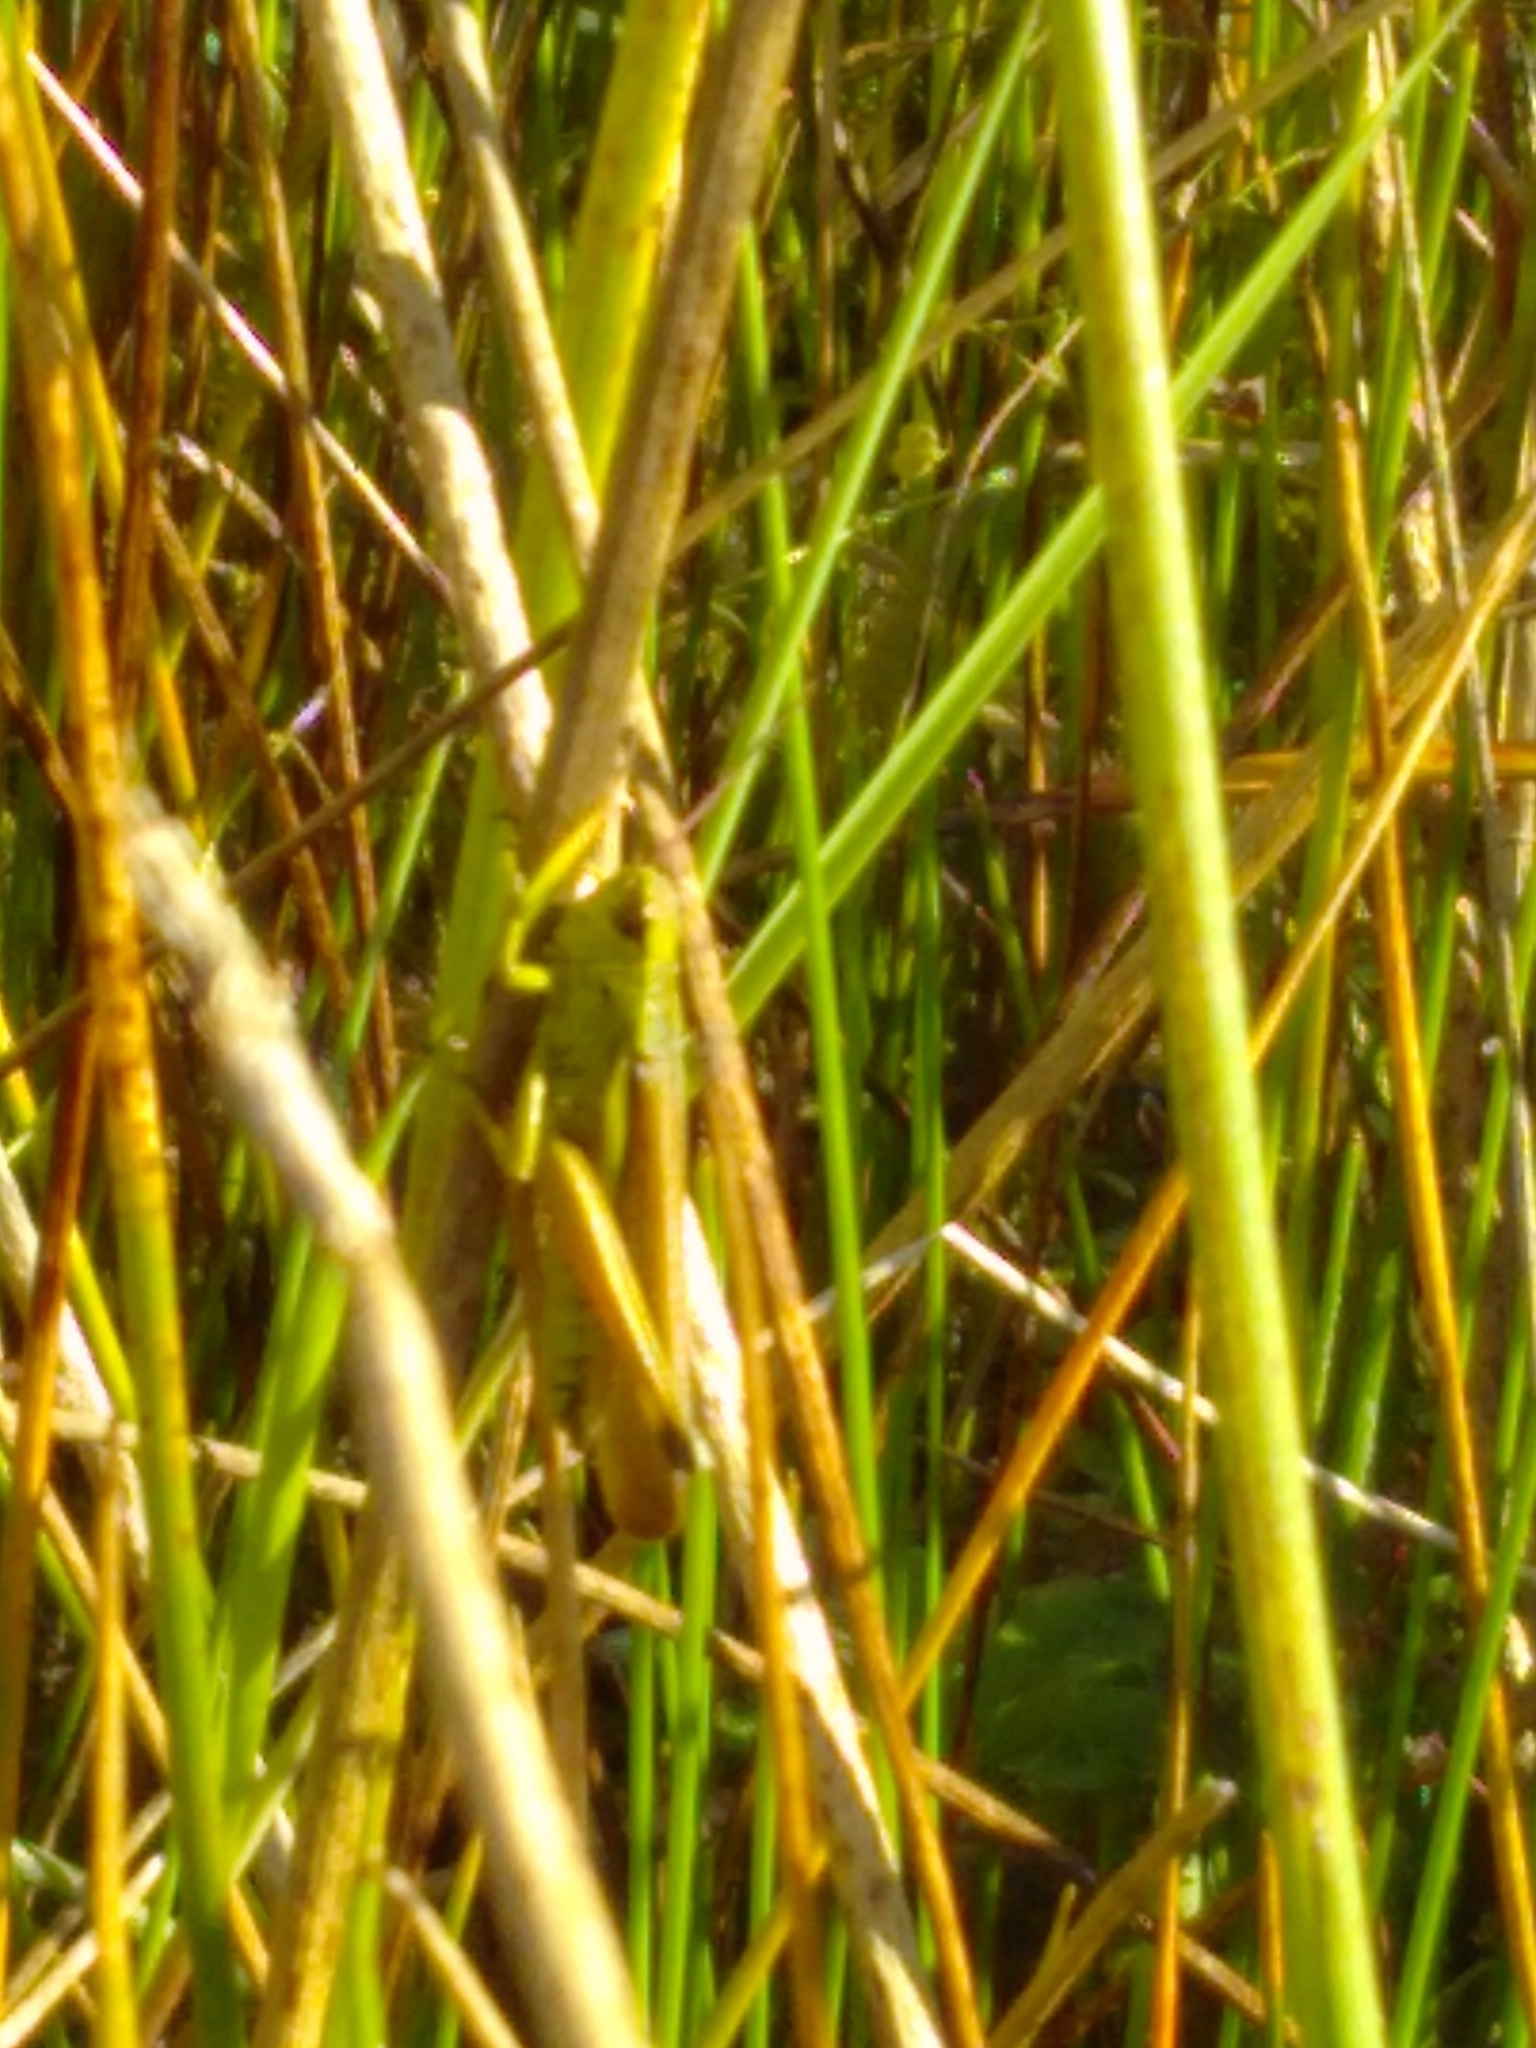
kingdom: Animalia
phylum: Arthropoda
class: Insecta
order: Orthoptera
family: Acrididae
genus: Stethophyma
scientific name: Stethophyma grossum
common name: Large marsh grasshopper
